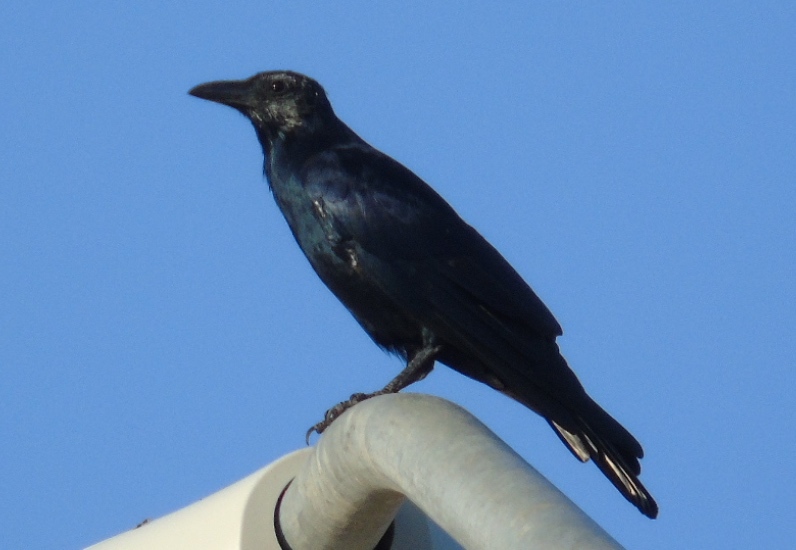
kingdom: Animalia
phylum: Chordata
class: Aves
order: Passeriformes
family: Corvidae
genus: Corvus
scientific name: Corvus sinaloae
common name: Sinaloa crow
